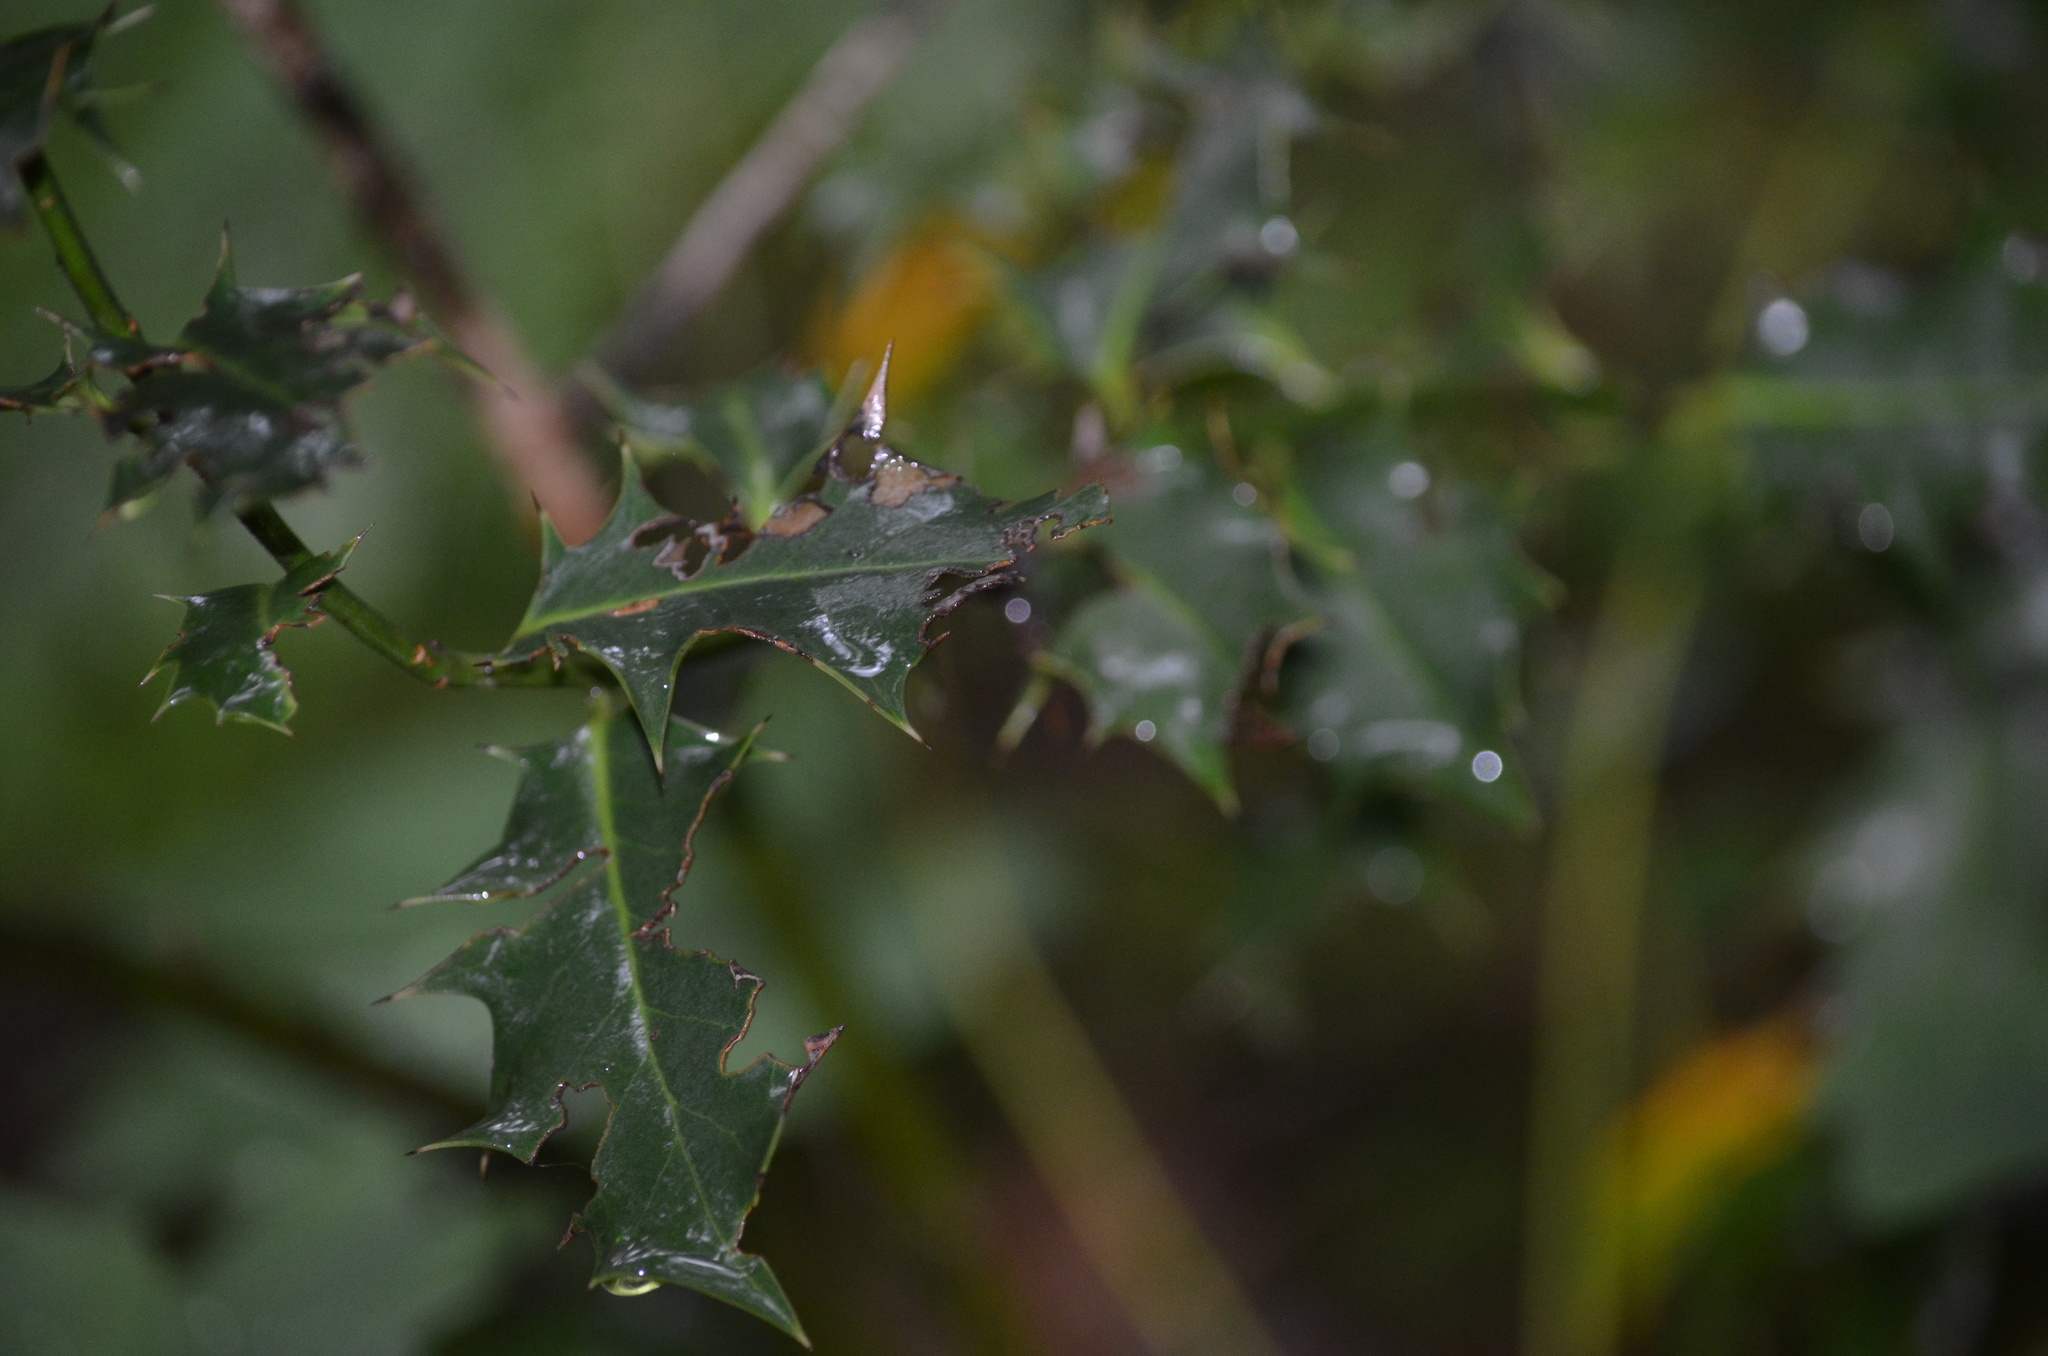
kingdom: Plantae
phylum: Tracheophyta
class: Magnoliopsida
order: Aquifoliales
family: Aquifoliaceae
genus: Ilex
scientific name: Ilex aquifolium
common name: English holly
